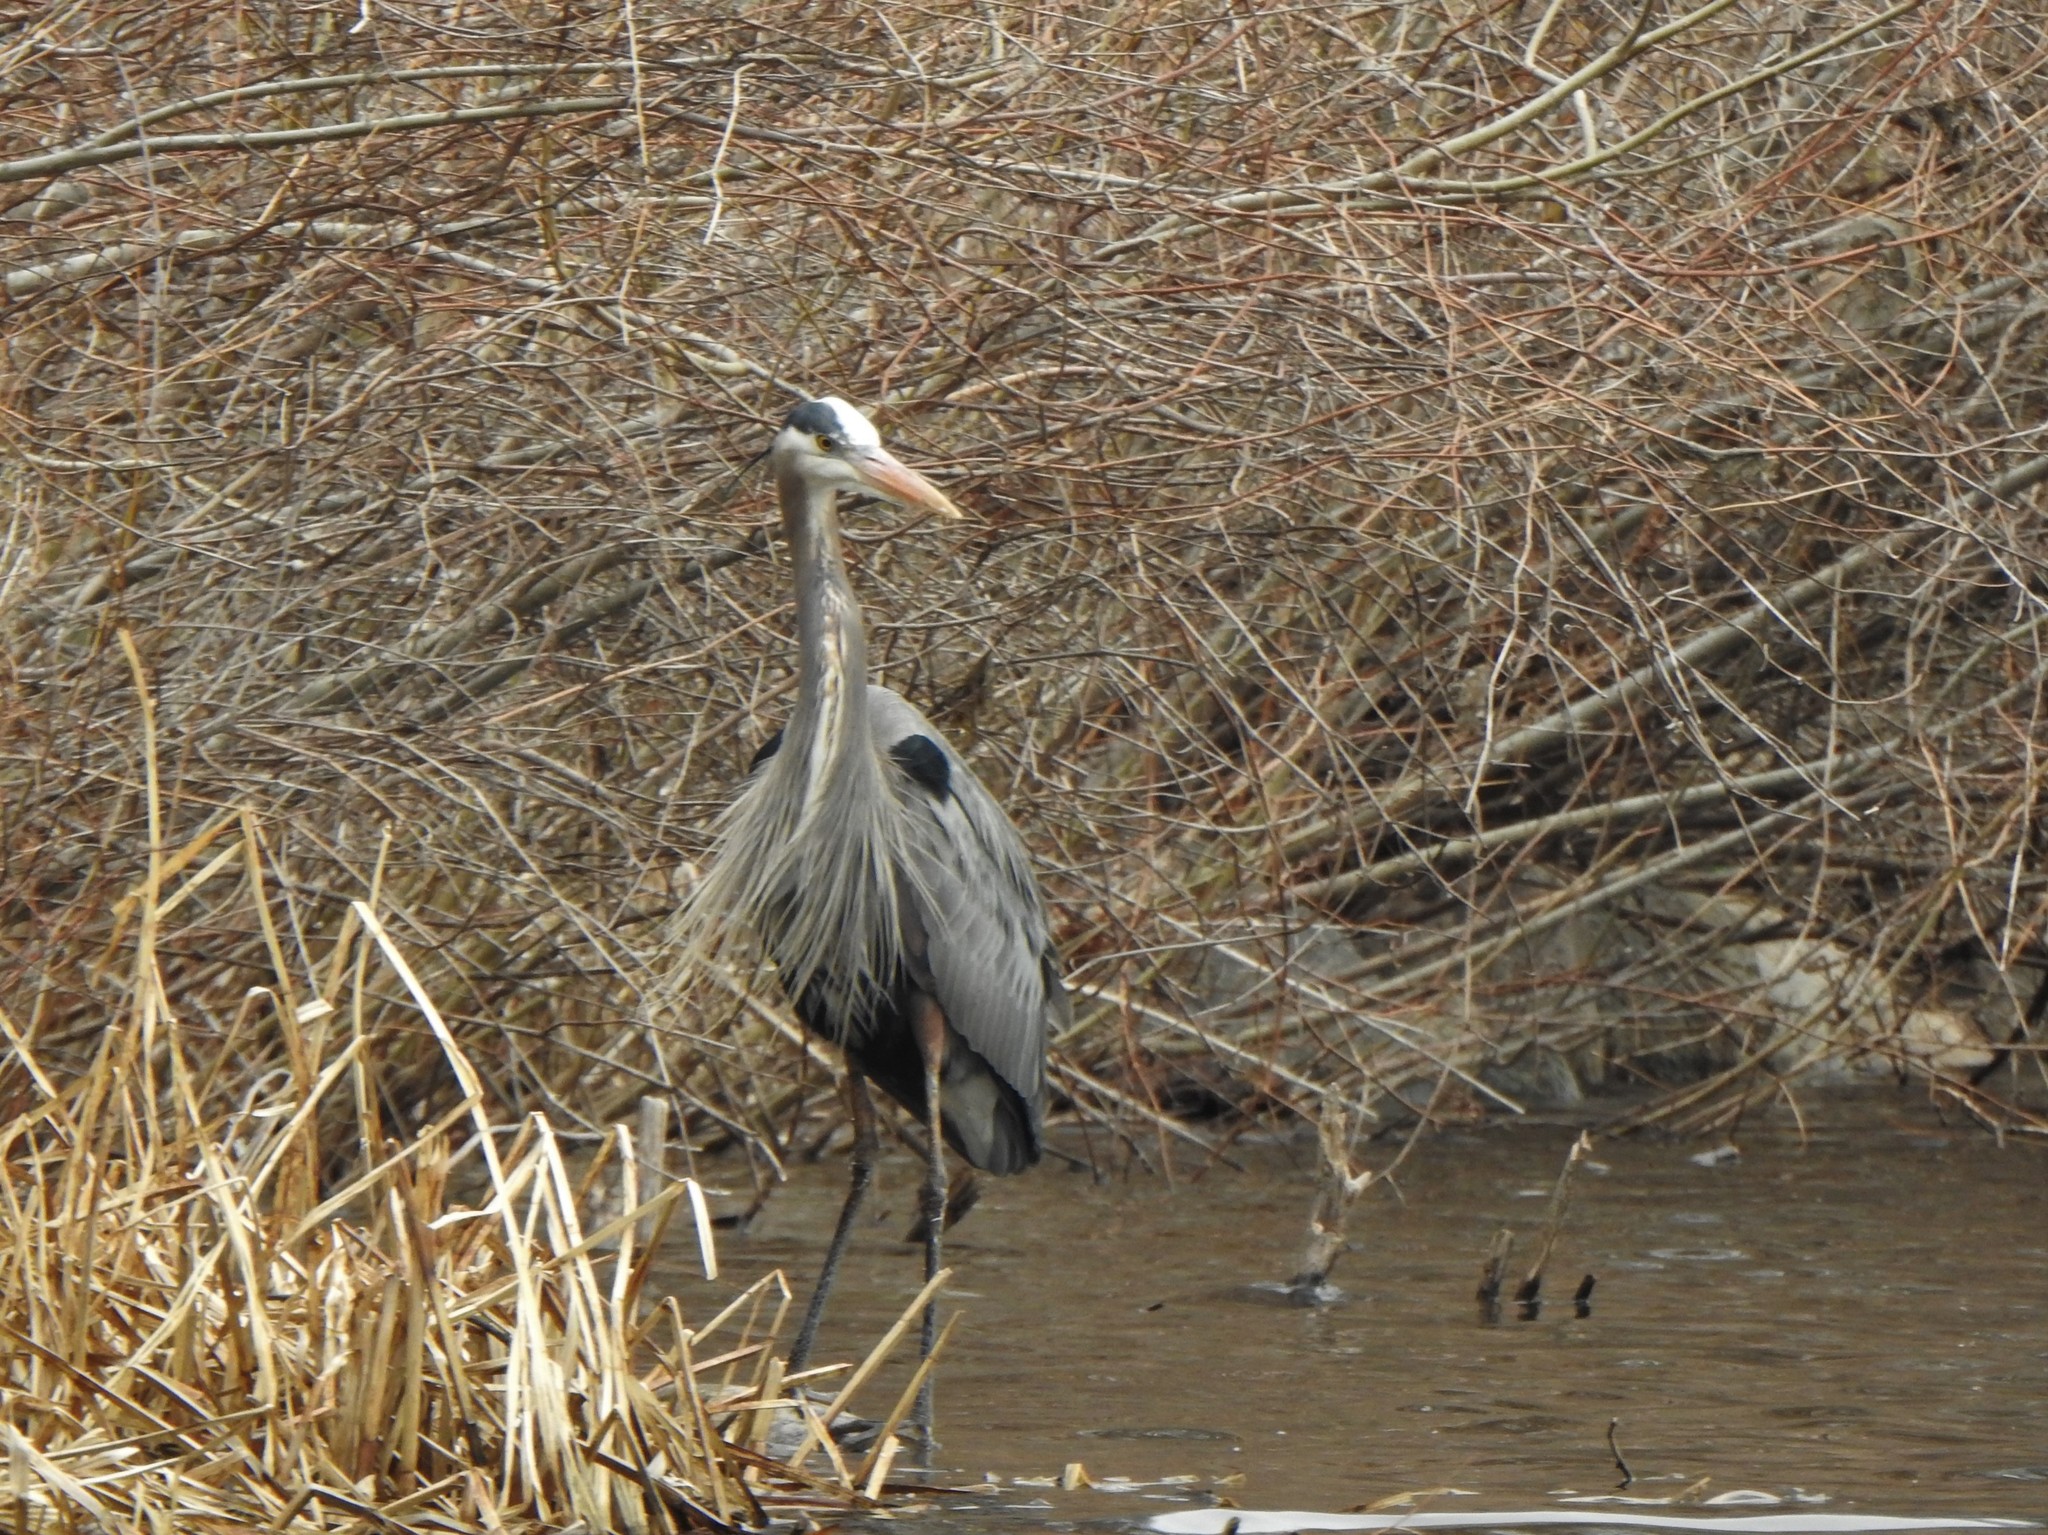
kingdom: Animalia
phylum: Chordata
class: Aves
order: Pelecaniformes
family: Ardeidae
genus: Ardea
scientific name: Ardea herodias
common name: Great blue heron
